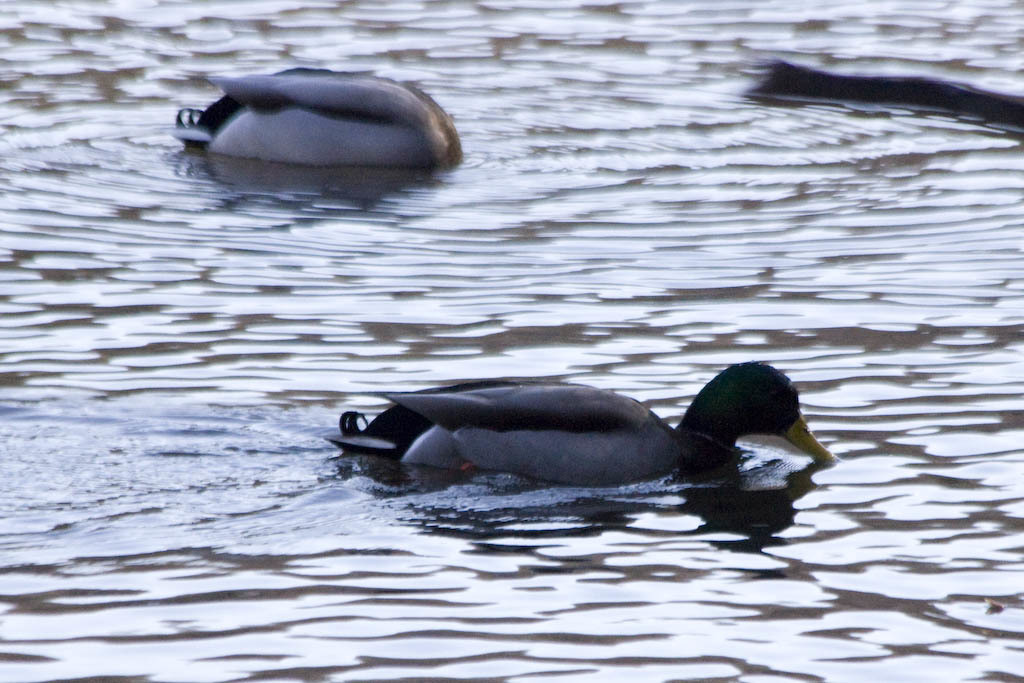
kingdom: Animalia
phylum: Chordata
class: Aves
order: Anseriformes
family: Anatidae
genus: Anas
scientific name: Anas platyrhynchos
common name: Mallard
